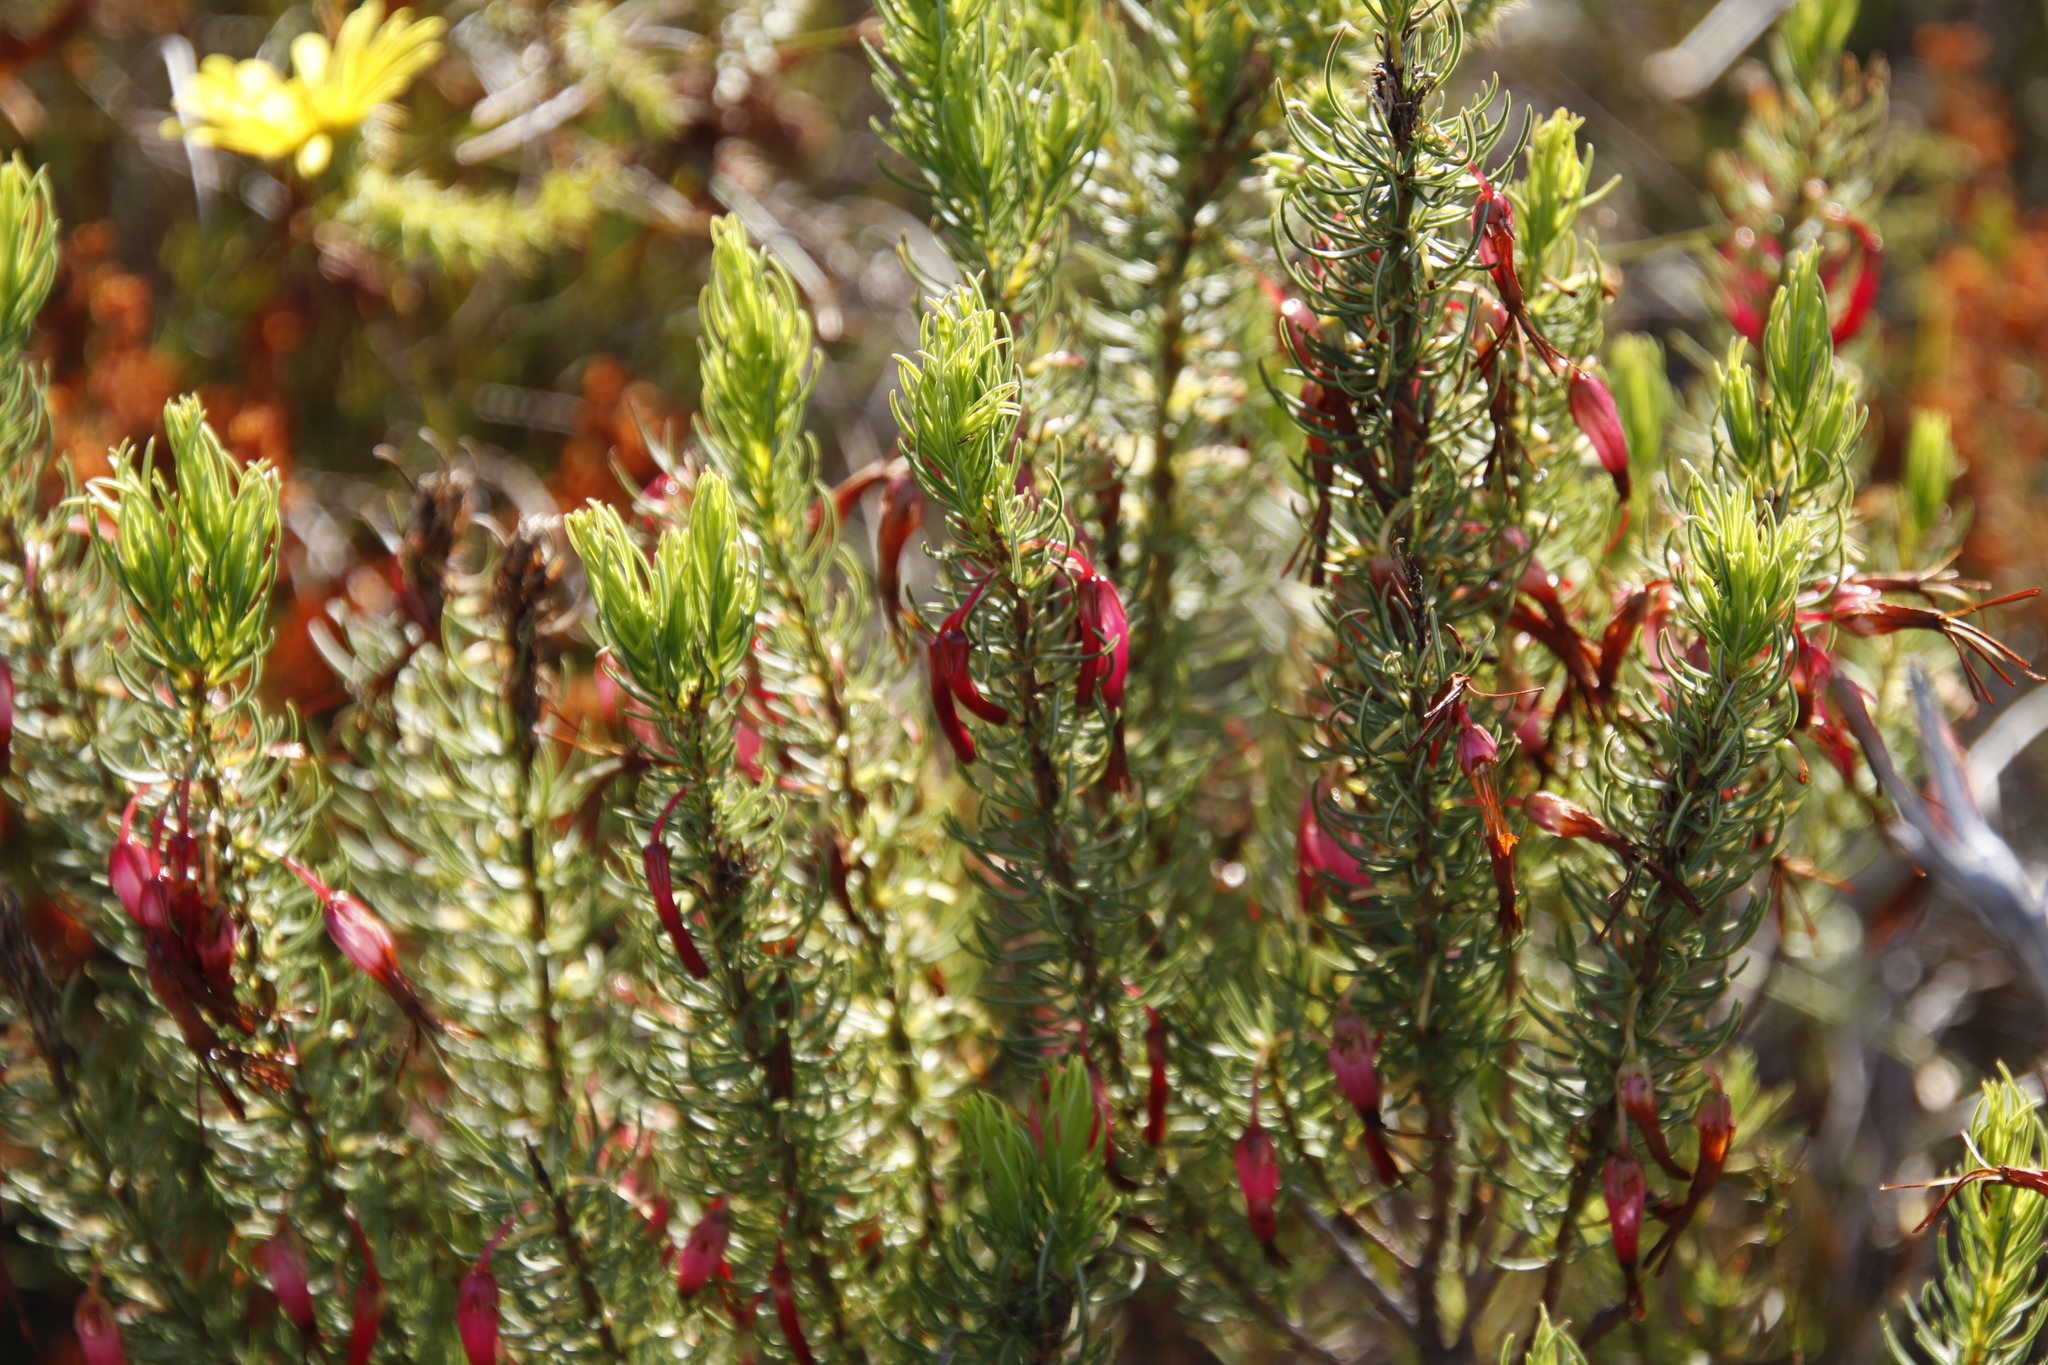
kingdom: Plantae
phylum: Tracheophyta
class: Magnoliopsida
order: Ericales
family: Ericaceae
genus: Erica
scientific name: Erica plukenetii
